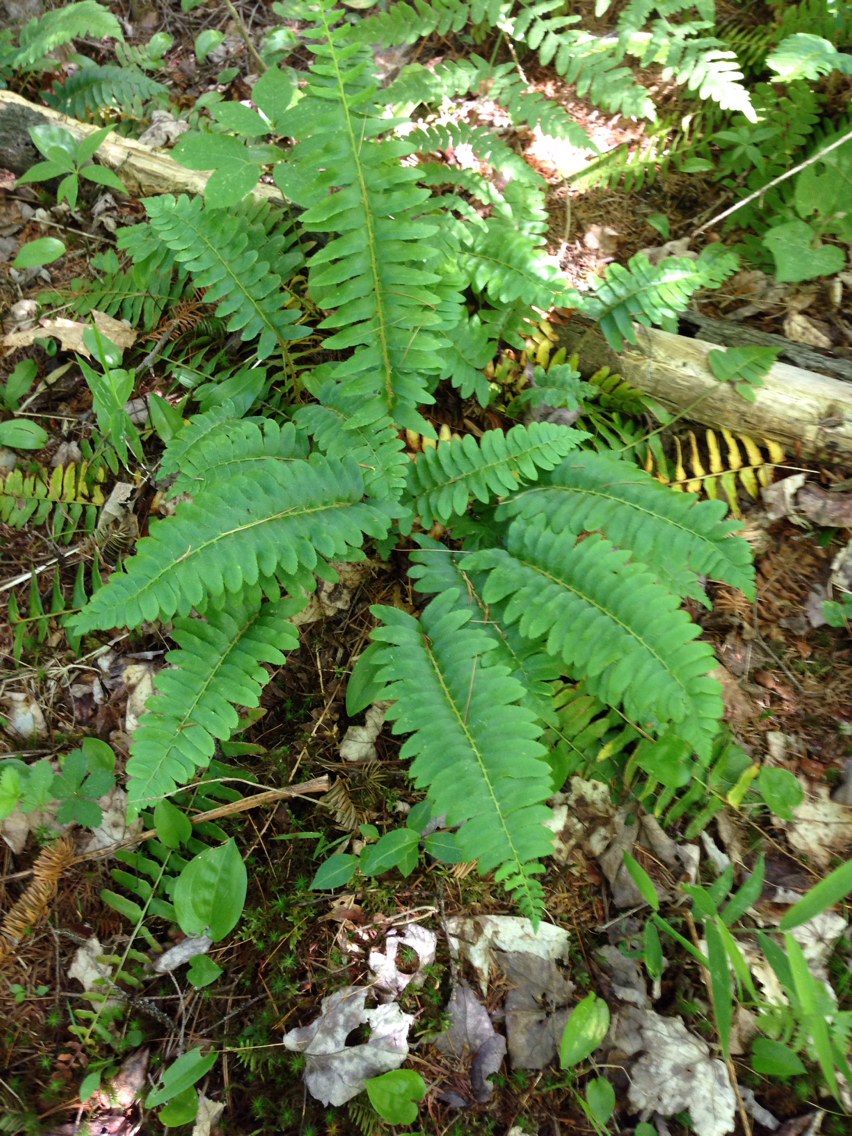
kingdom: Plantae
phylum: Tracheophyta
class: Polypodiopsida
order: Polypodiales
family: Dryopteridaceae
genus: Polystichum
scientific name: Polystichum acrostichoides
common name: Christmas fern
